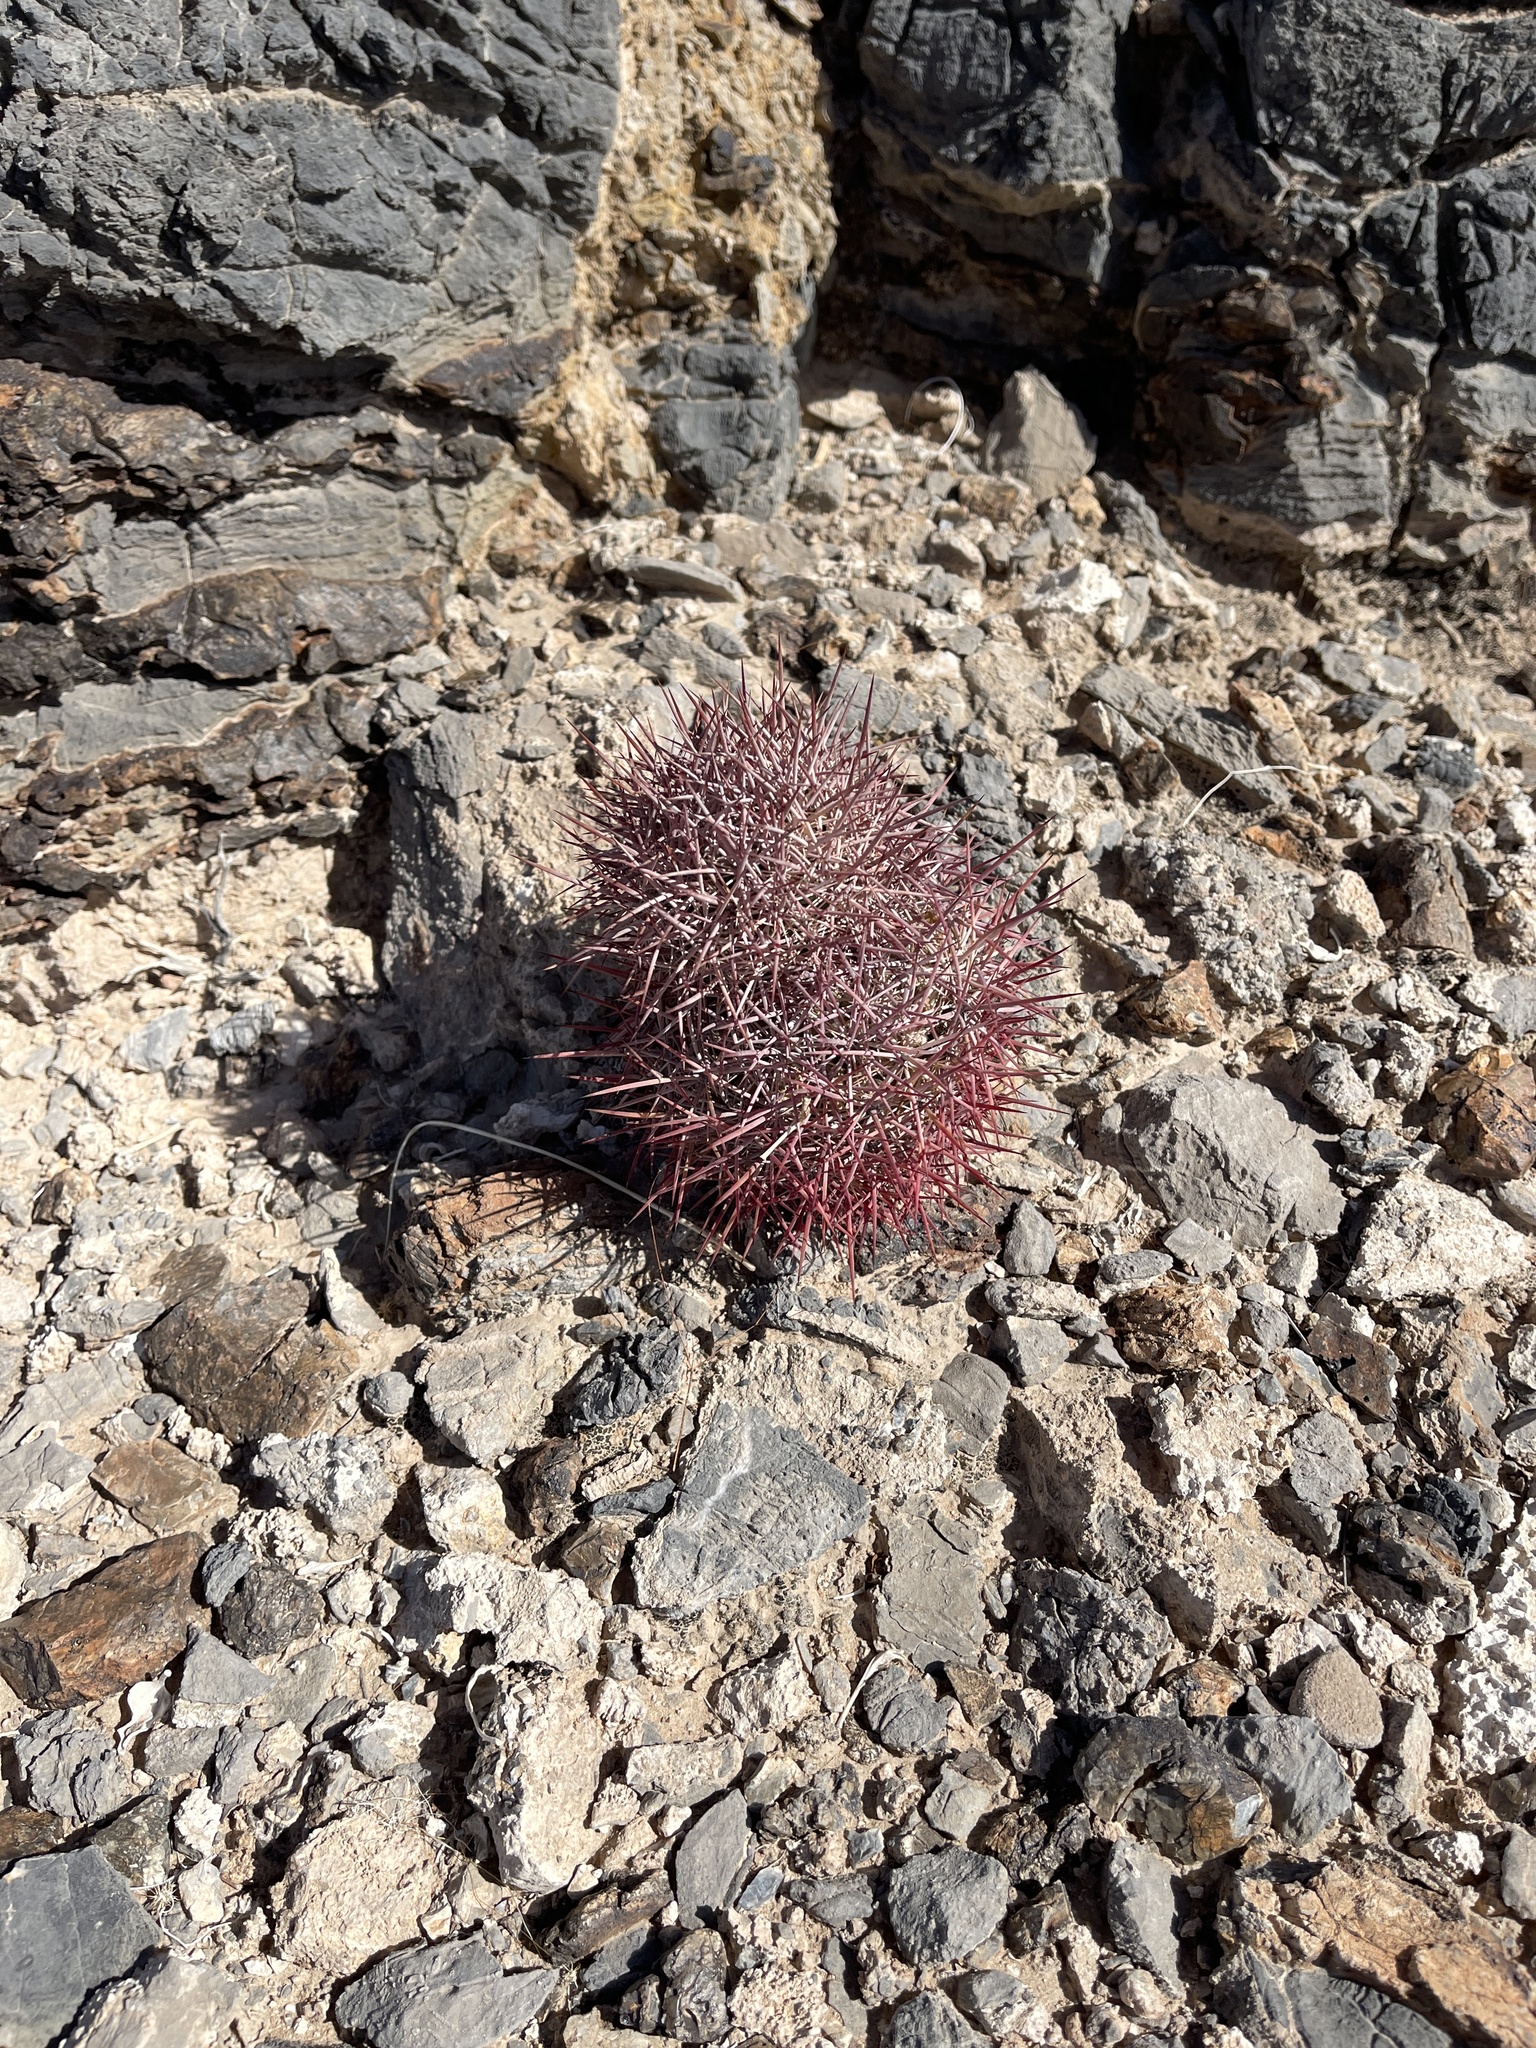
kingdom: Plantae
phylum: Tracheophyta
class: Magnoliopsida
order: Caryophyllales
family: Cactaceae
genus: Sclerocactus
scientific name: Sclerocactus johnsonii
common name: Eight-spine fishhook cactus
